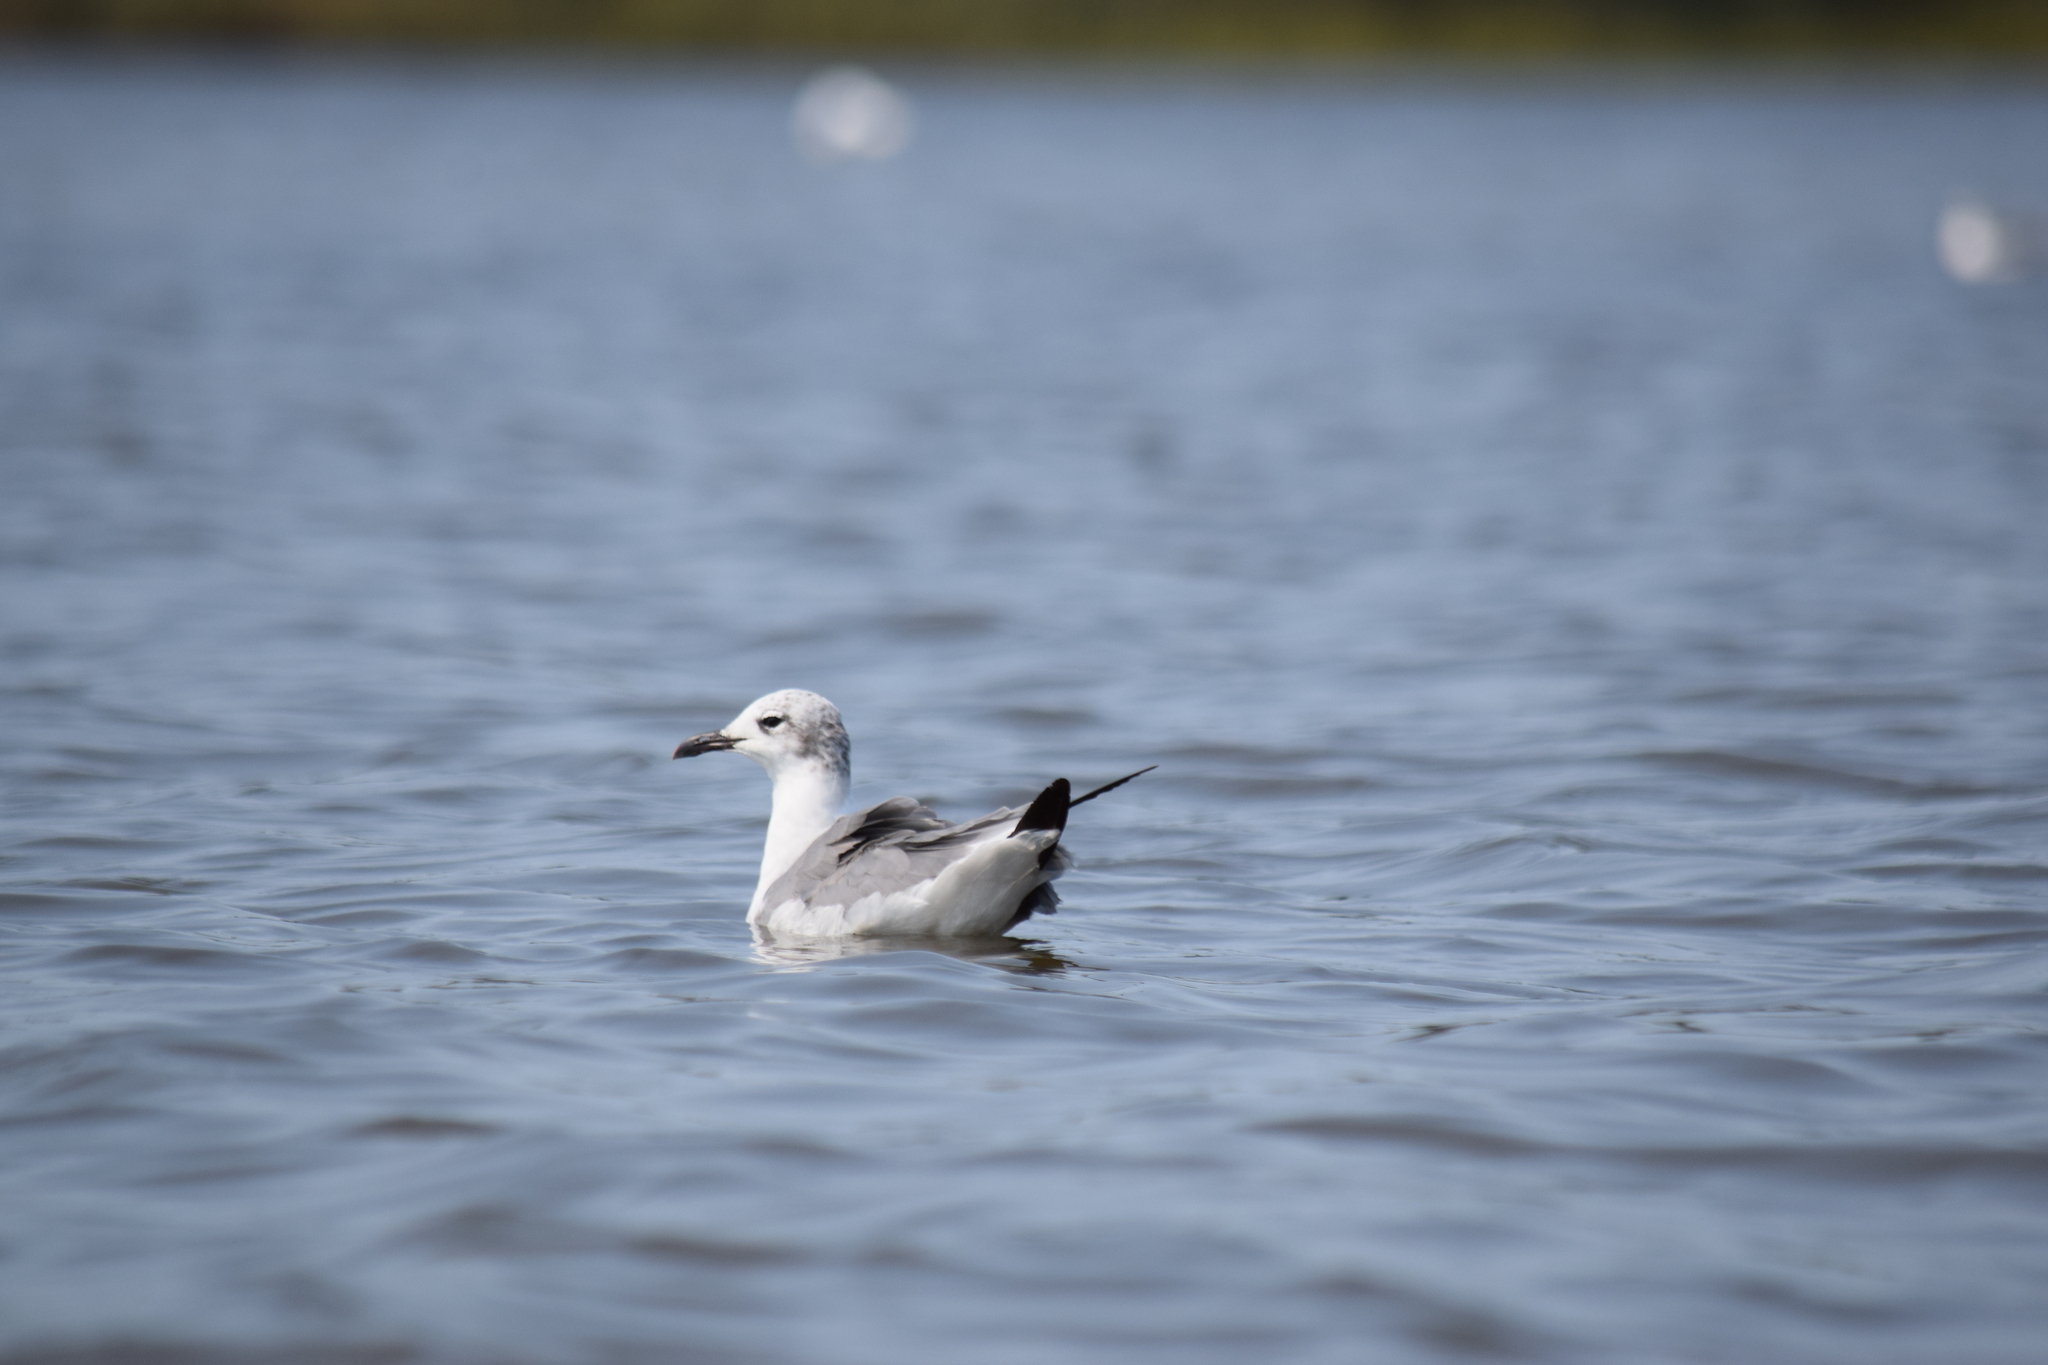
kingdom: Animalia
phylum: Chordata
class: Aves
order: Charadriiformes
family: Laridae
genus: Leucophaeus
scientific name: Leucophaeus atricilla
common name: Laughing gull
